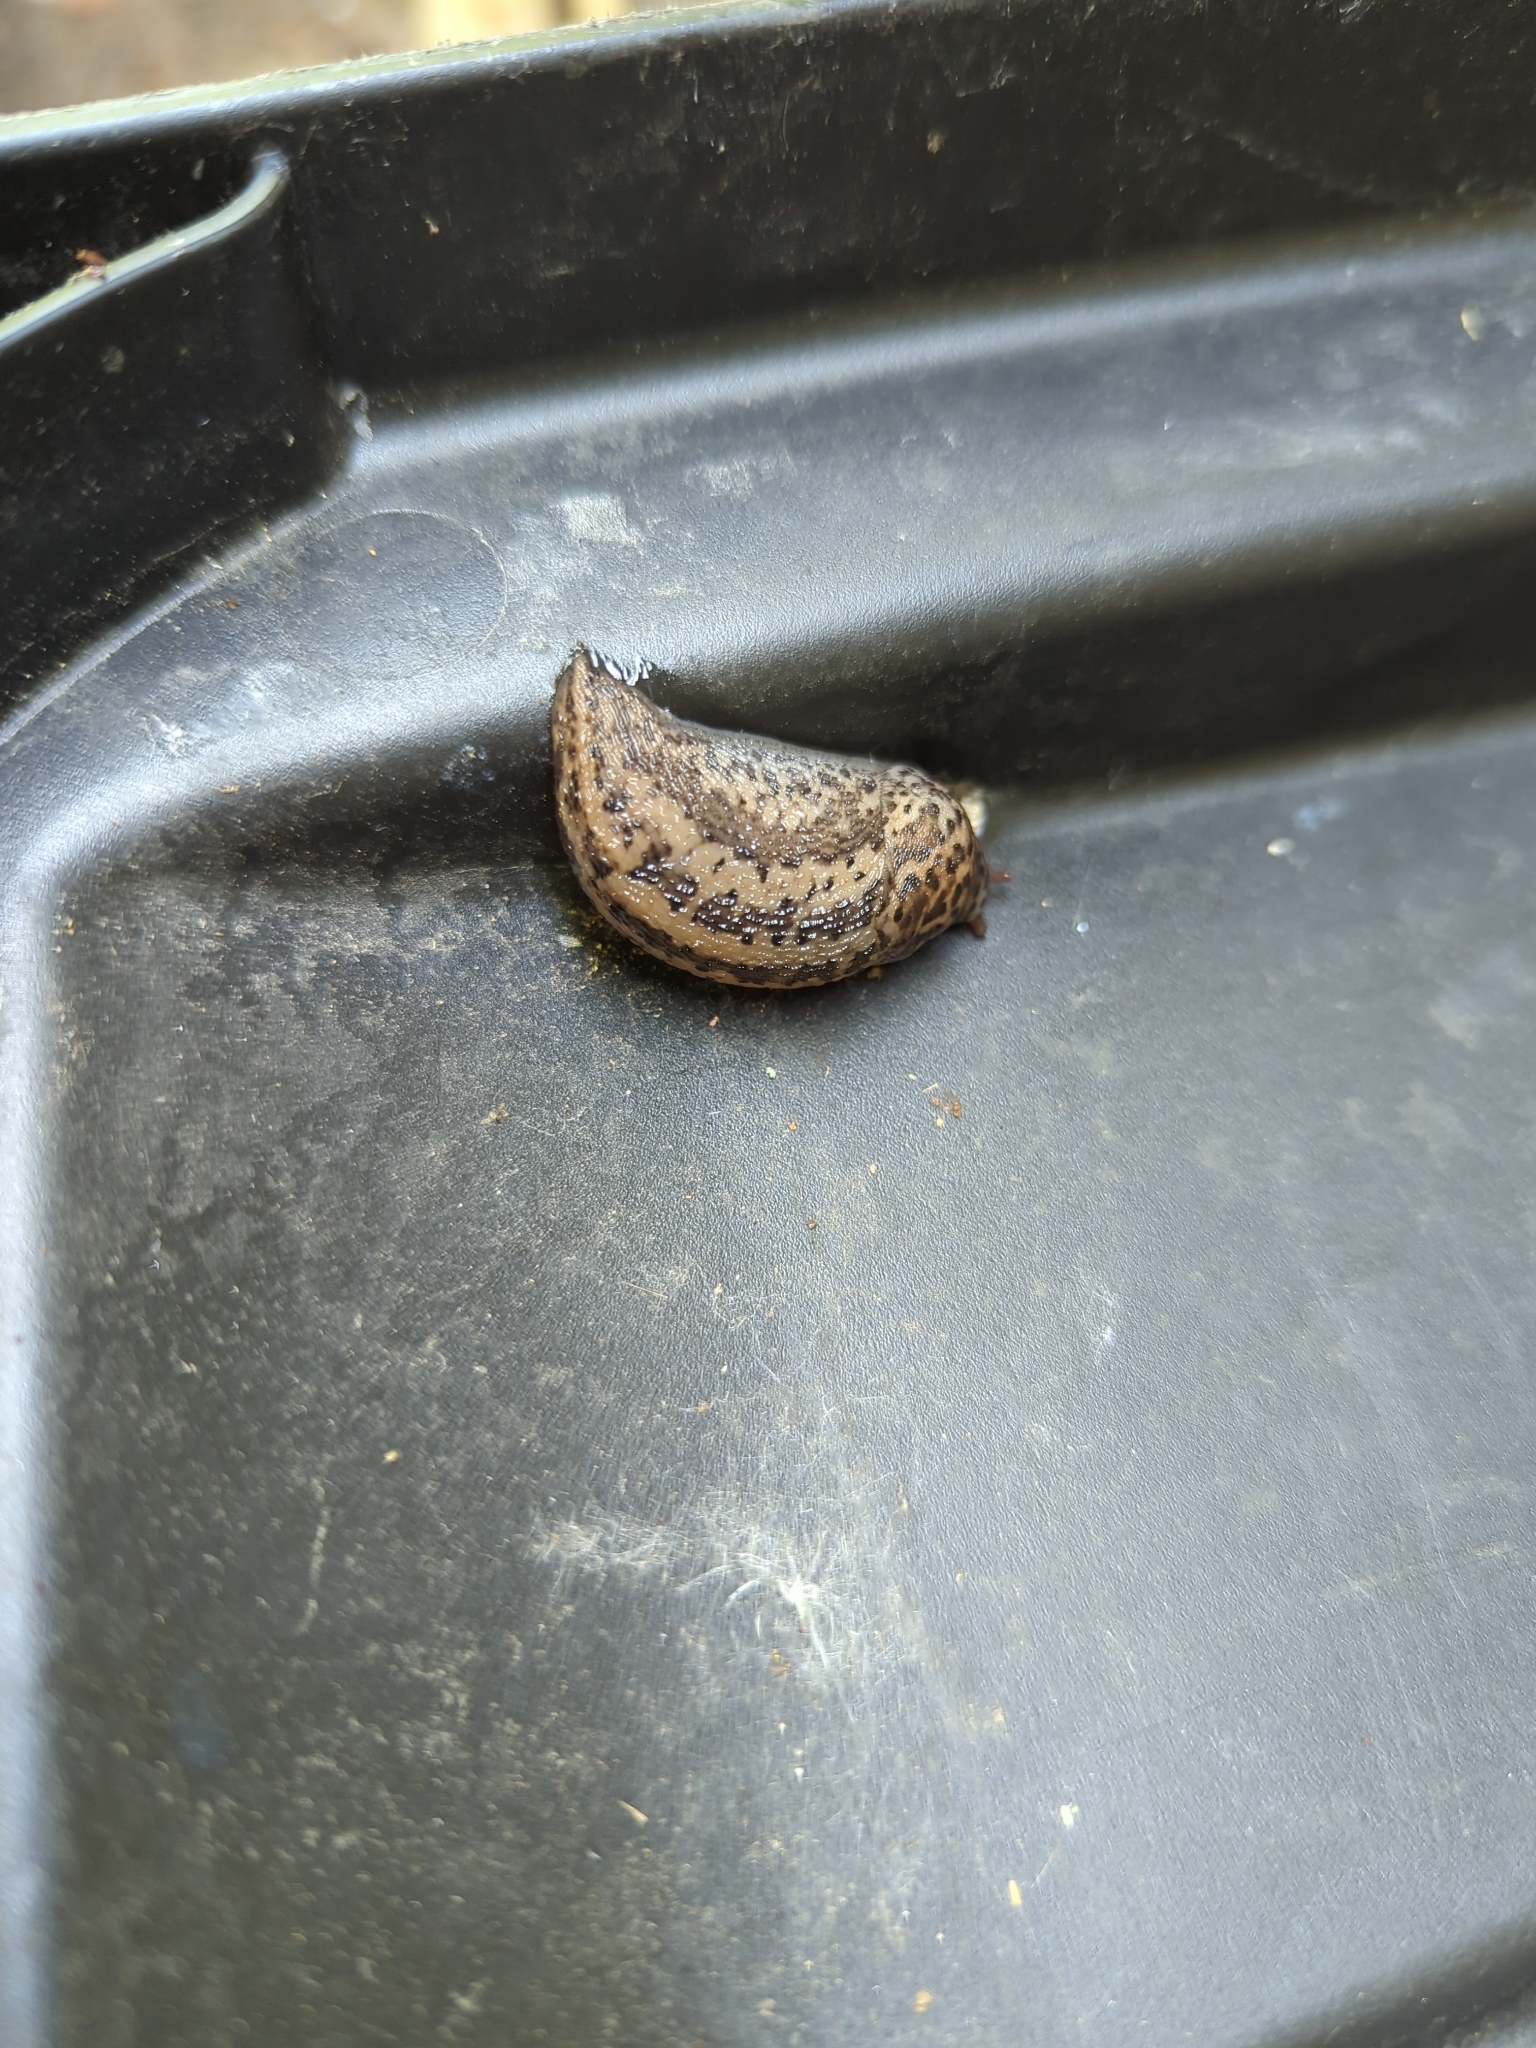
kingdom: Animalia
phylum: Mollusca
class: Gastropoda
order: Stylommatophora
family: Limacidae
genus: Limax
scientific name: Limax maximus
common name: Great grey slug
